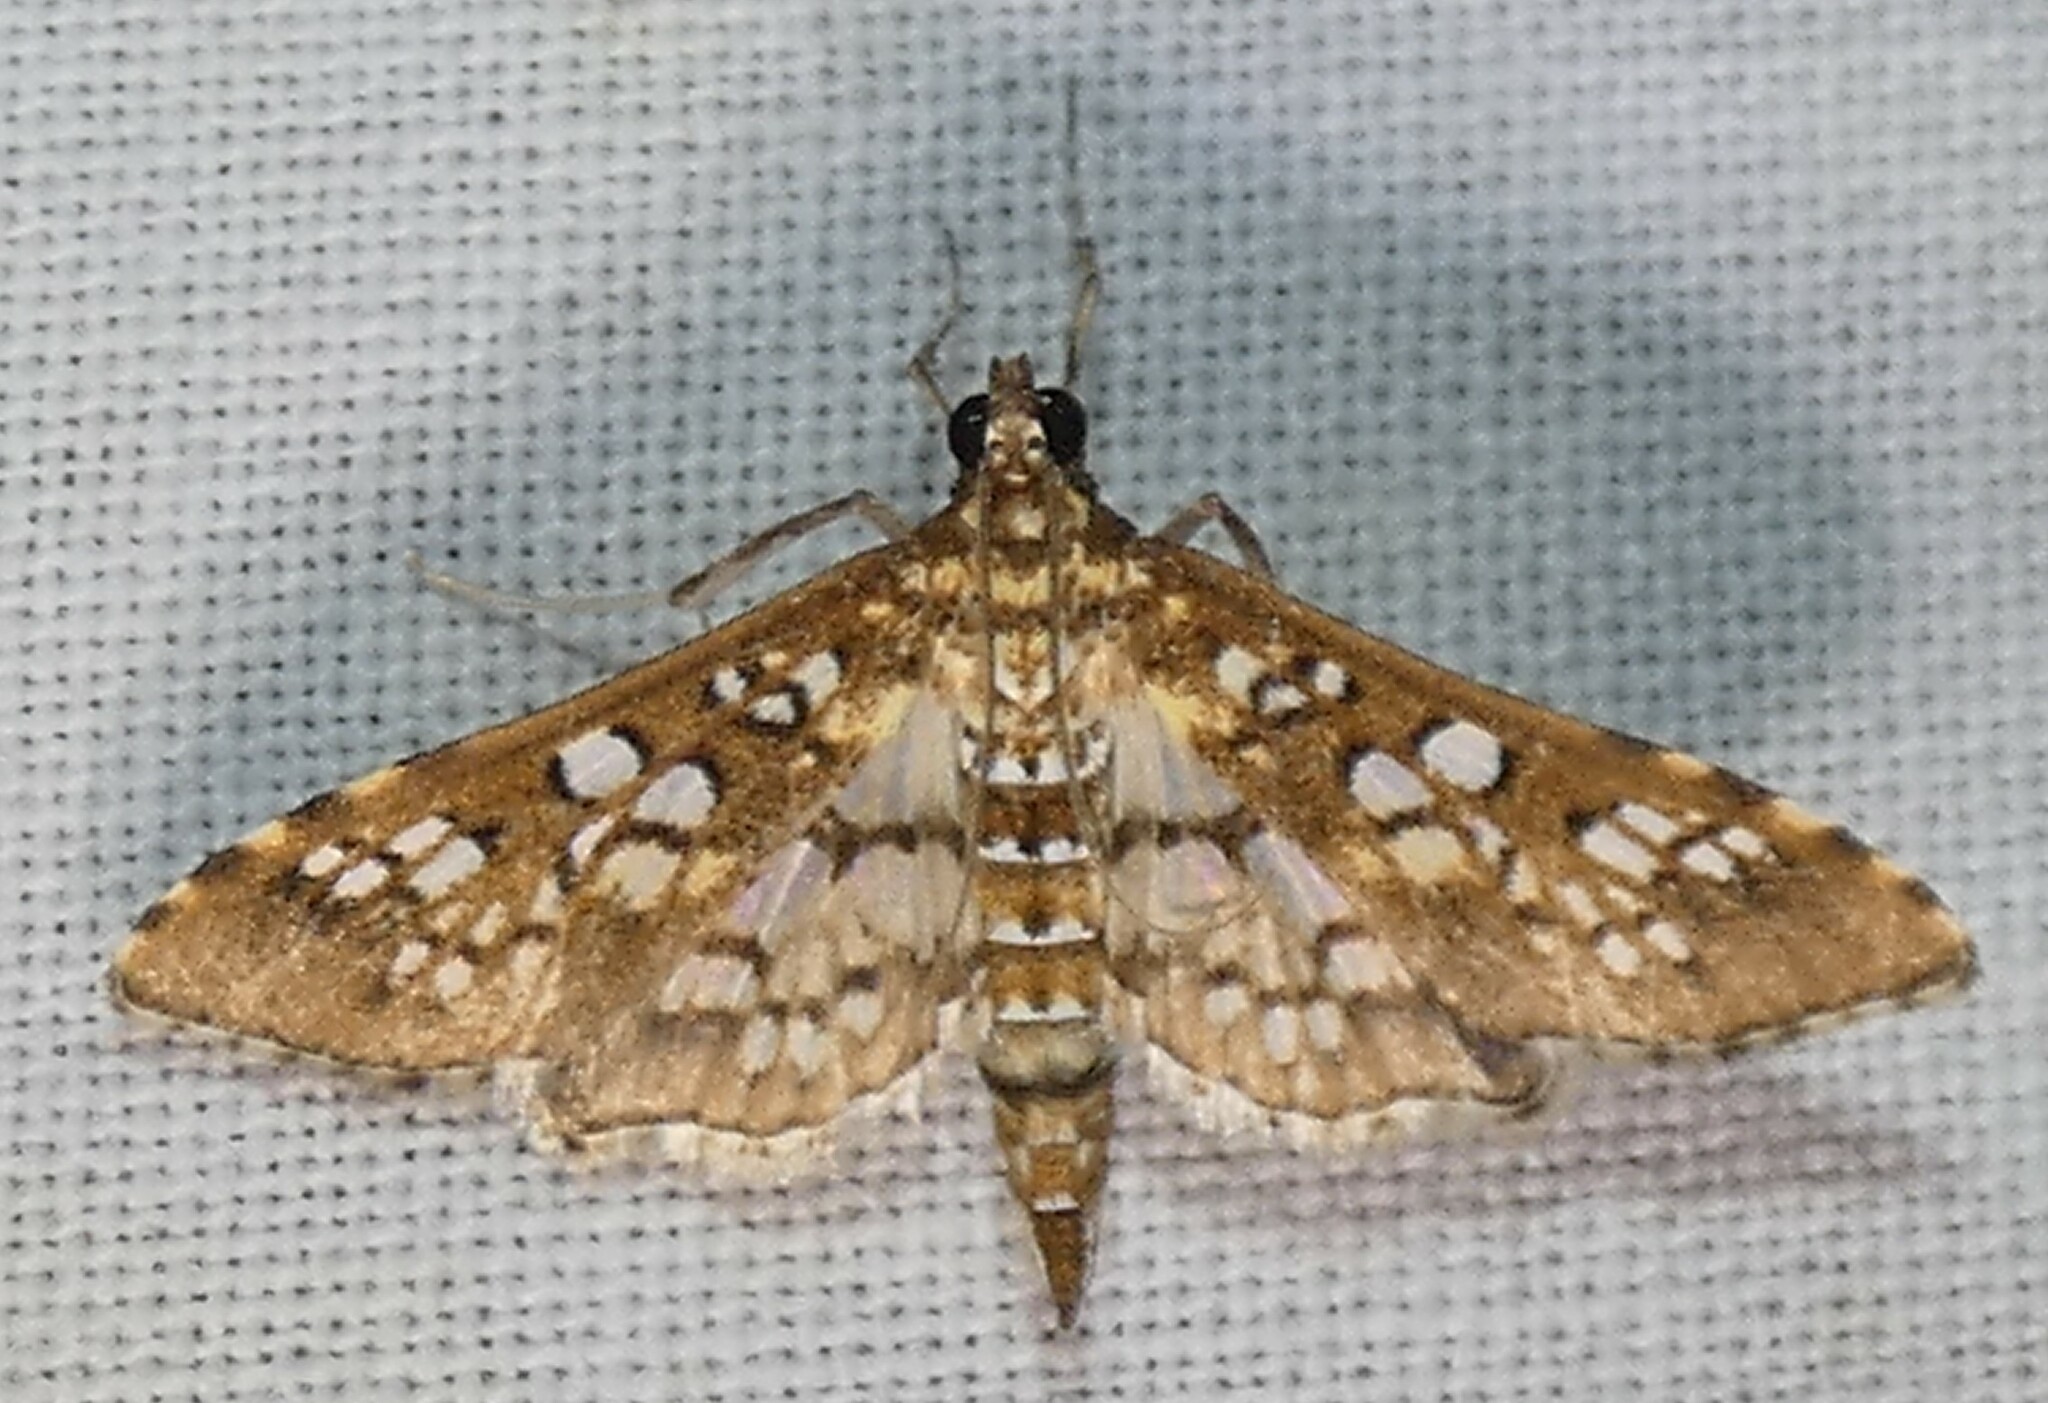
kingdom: Animalia
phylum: Arthropoda
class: Insecta
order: Lepidoptera
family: Crambidae
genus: Samea
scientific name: Samea ecclesialis
